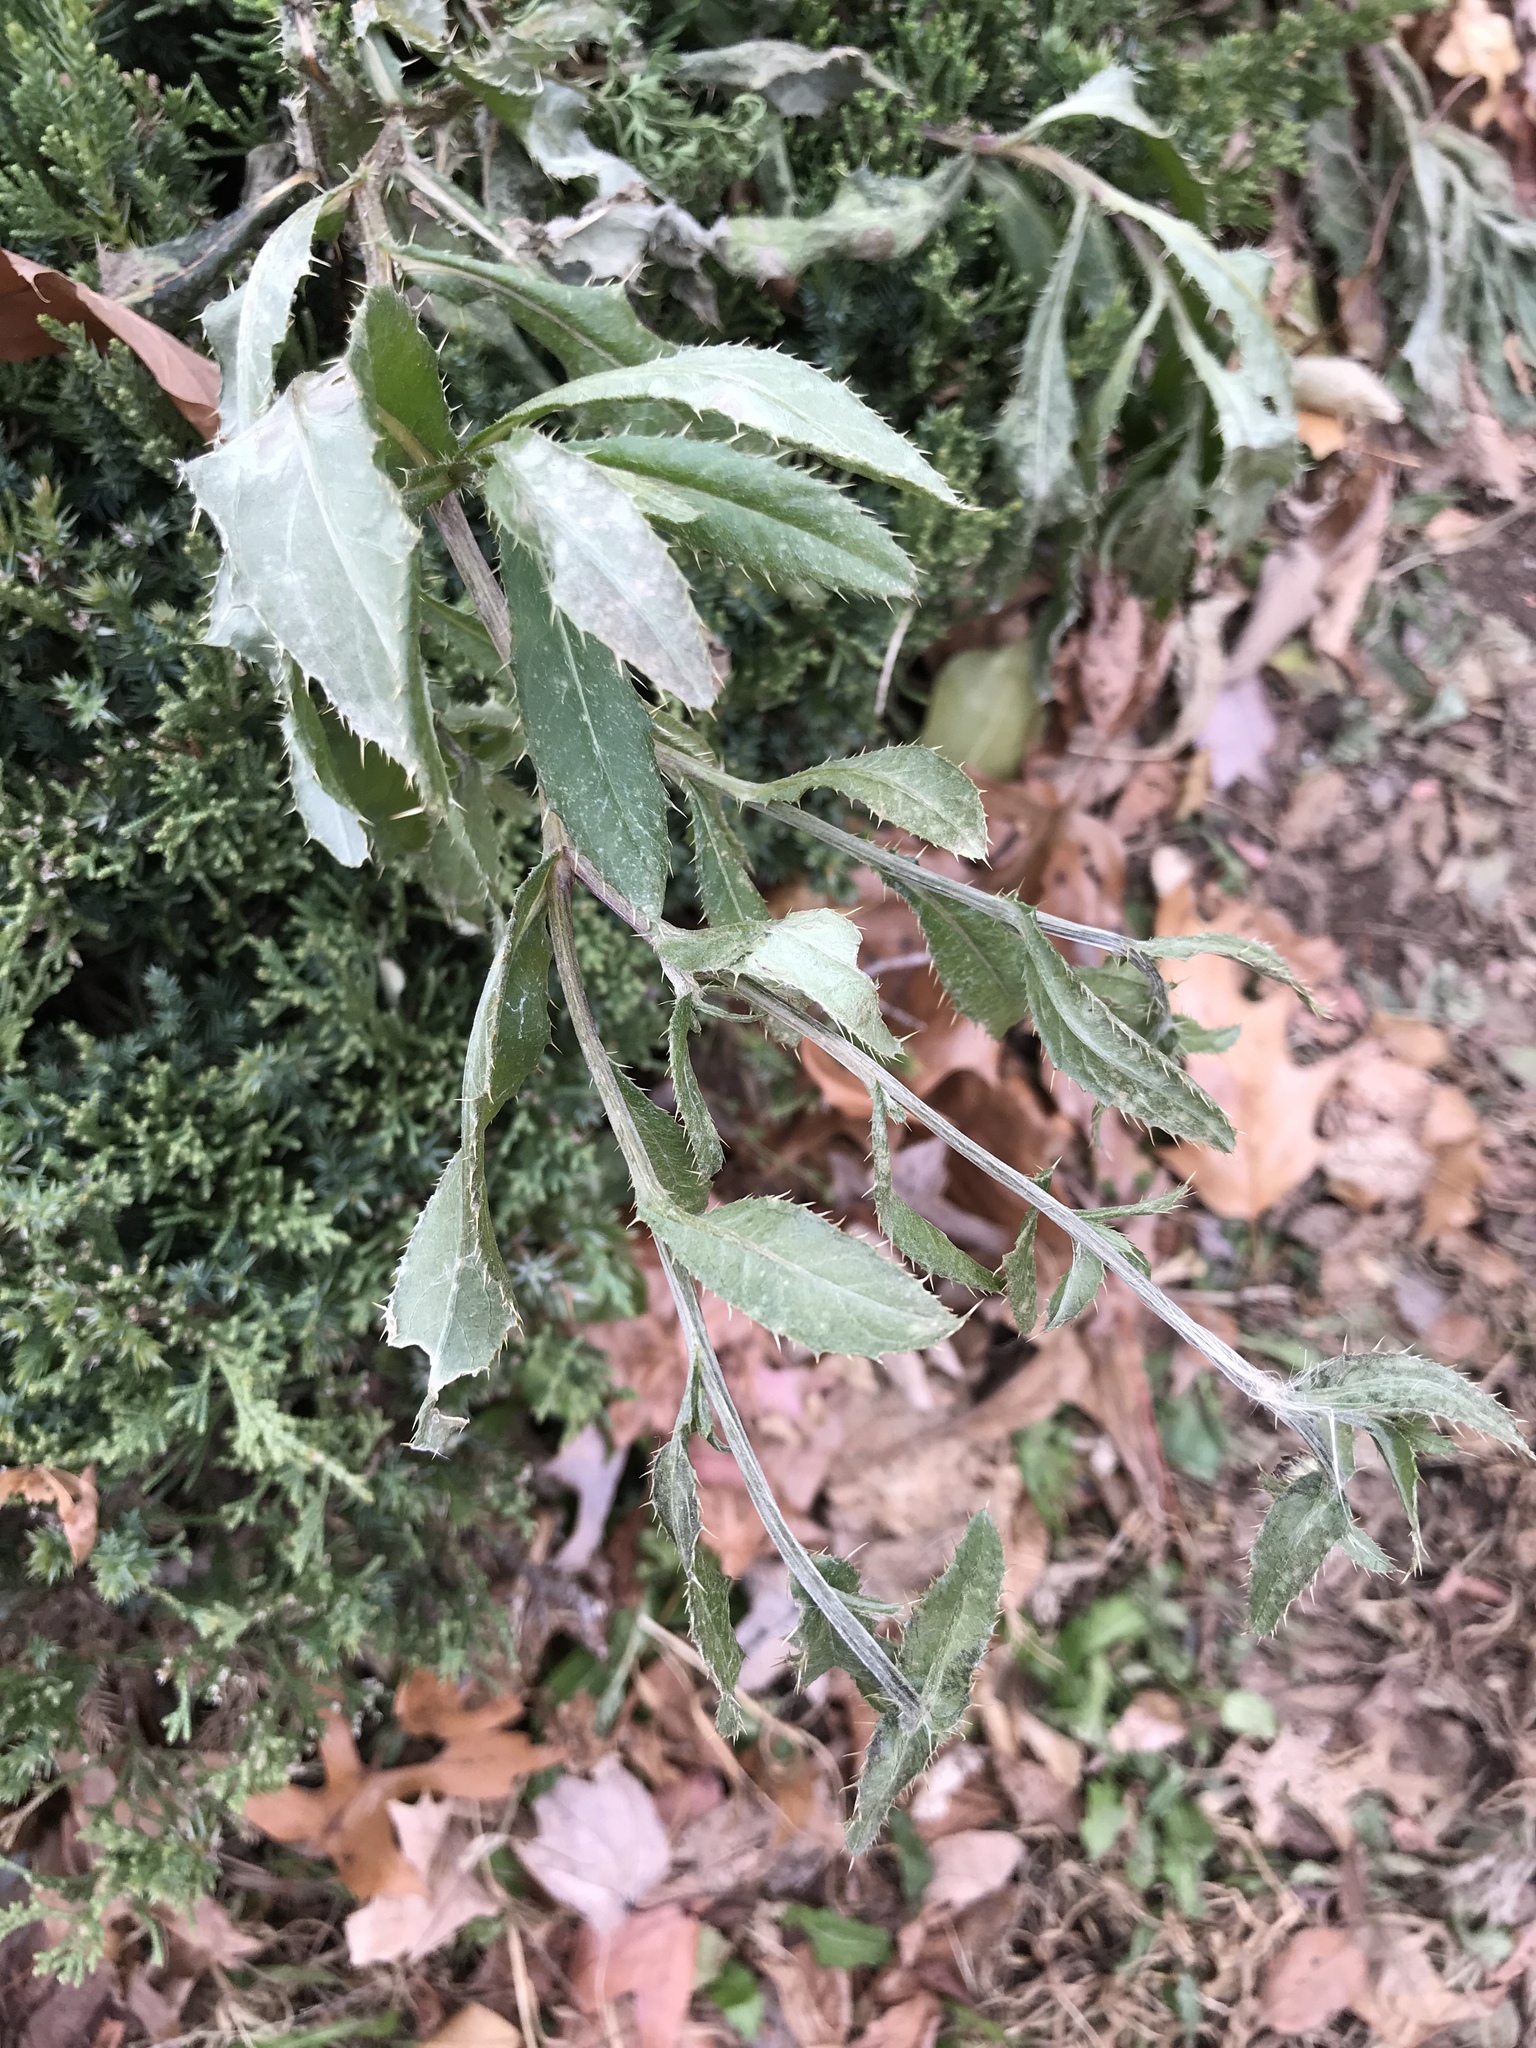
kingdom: Plantae
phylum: Tracheophyta
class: Magnoliopsida
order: Asterales
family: Asteraceae
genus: Cirsium
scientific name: Cirsium arvense
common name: Creeping thistle
